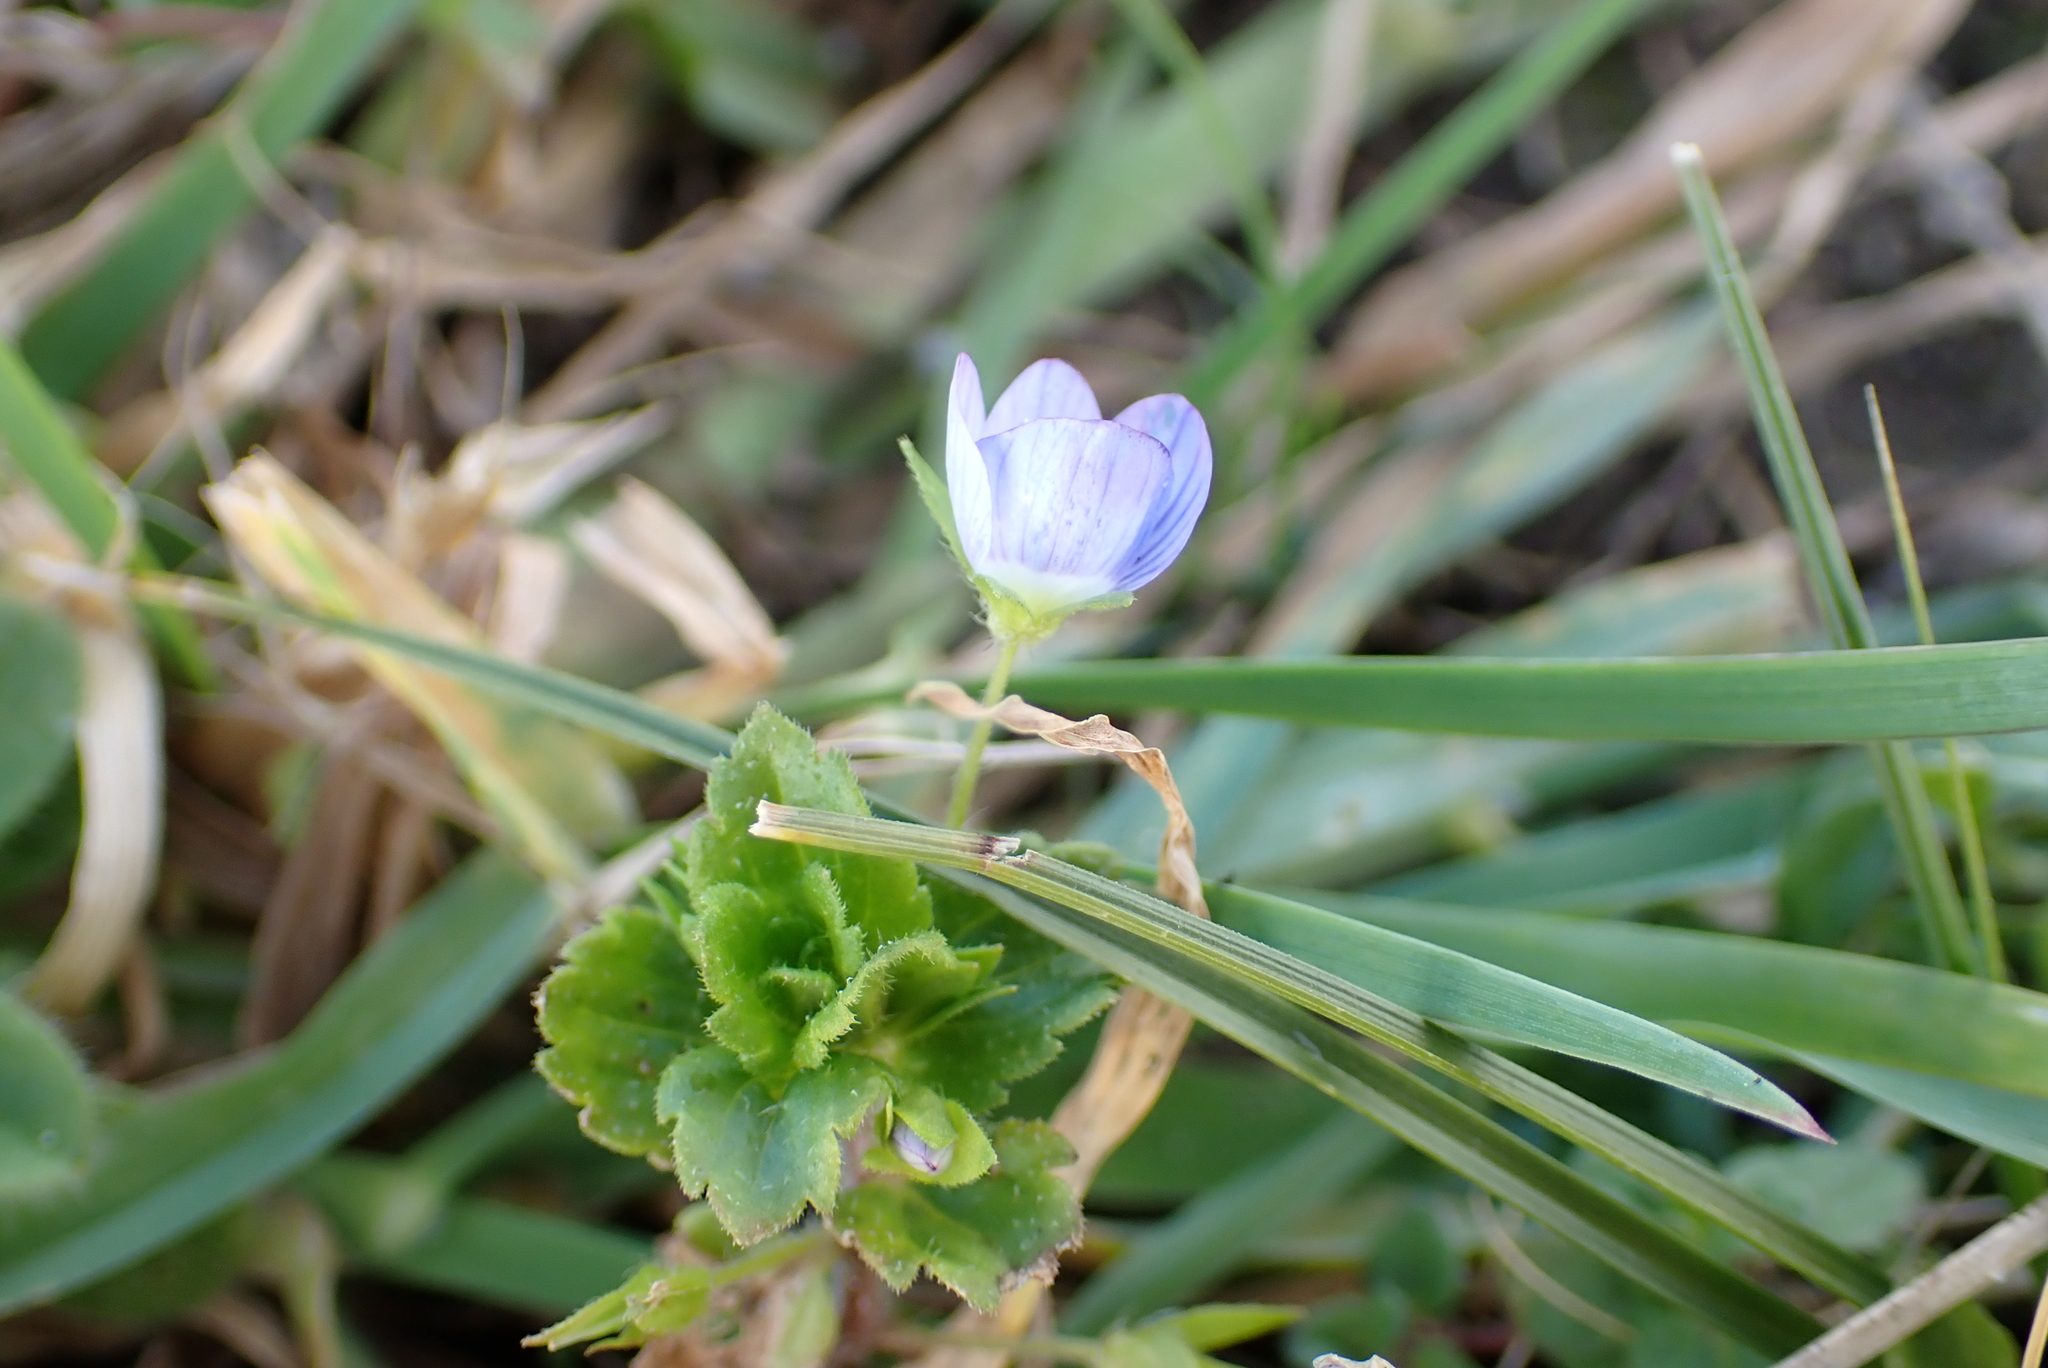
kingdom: Plantae
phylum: Tracheophyta
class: Magnoliopsida
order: Lamiales
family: Plantaginaceae
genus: Veronica
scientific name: Veronica persica
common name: Common field-speedwell
